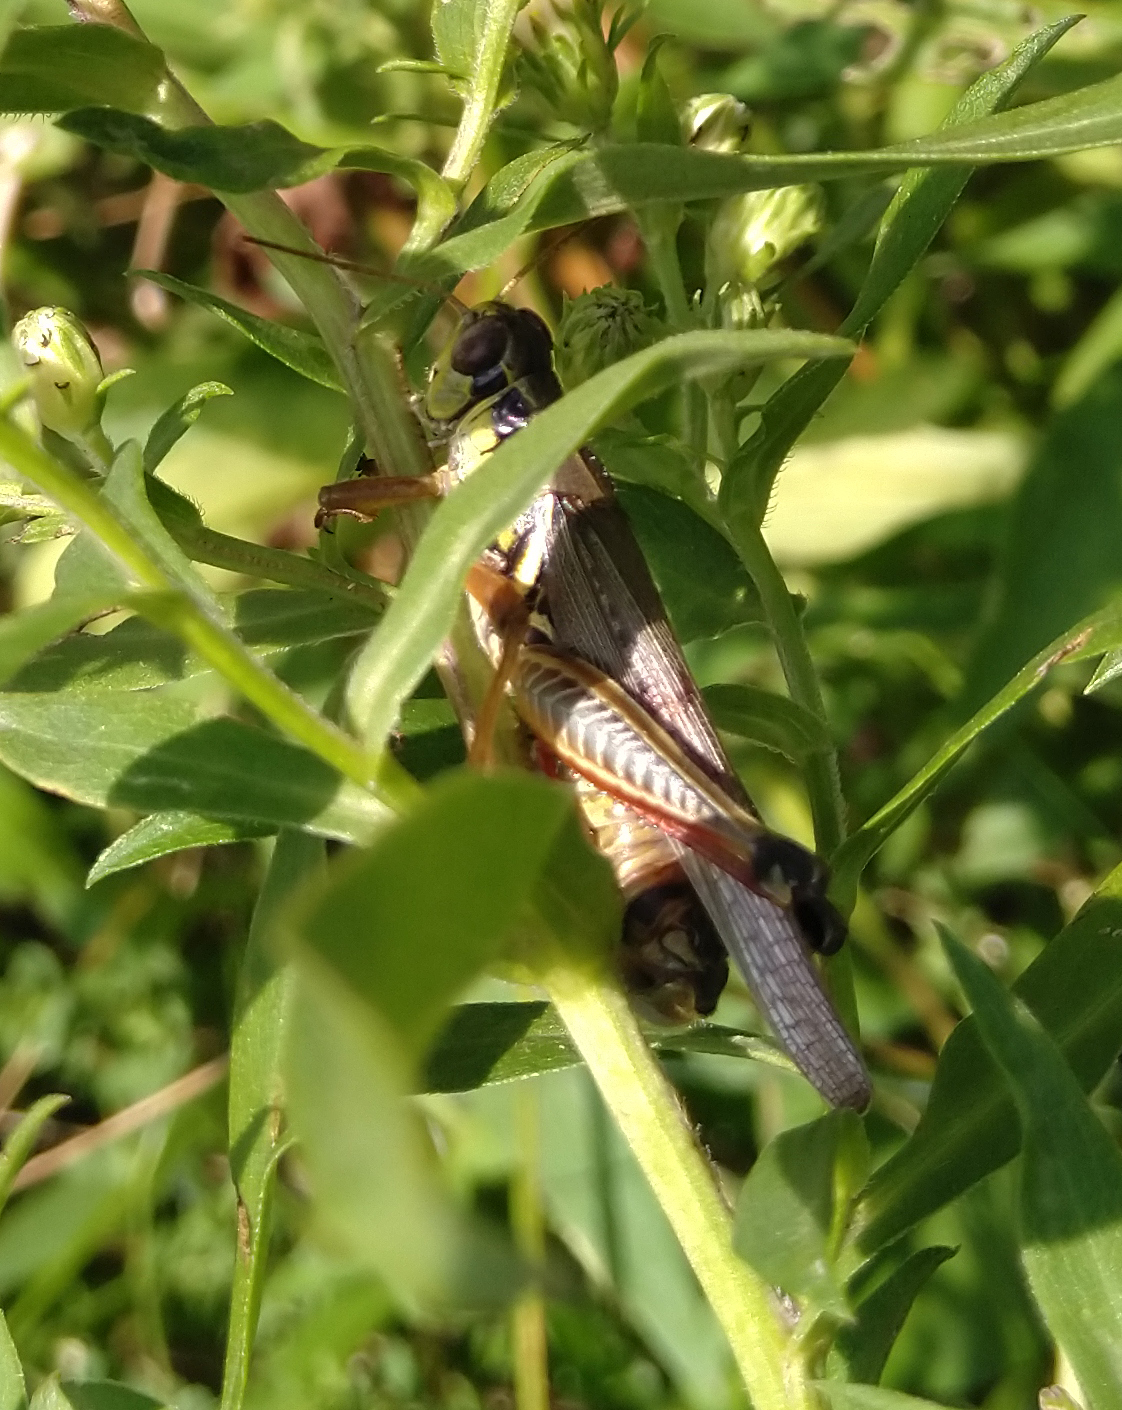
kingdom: Animalia
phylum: Arthropoda
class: Insecta
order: Orthoptera
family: Acrididae
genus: Melanoplus
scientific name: Melanoplus femurrubrum
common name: Red-legged grasshopper
